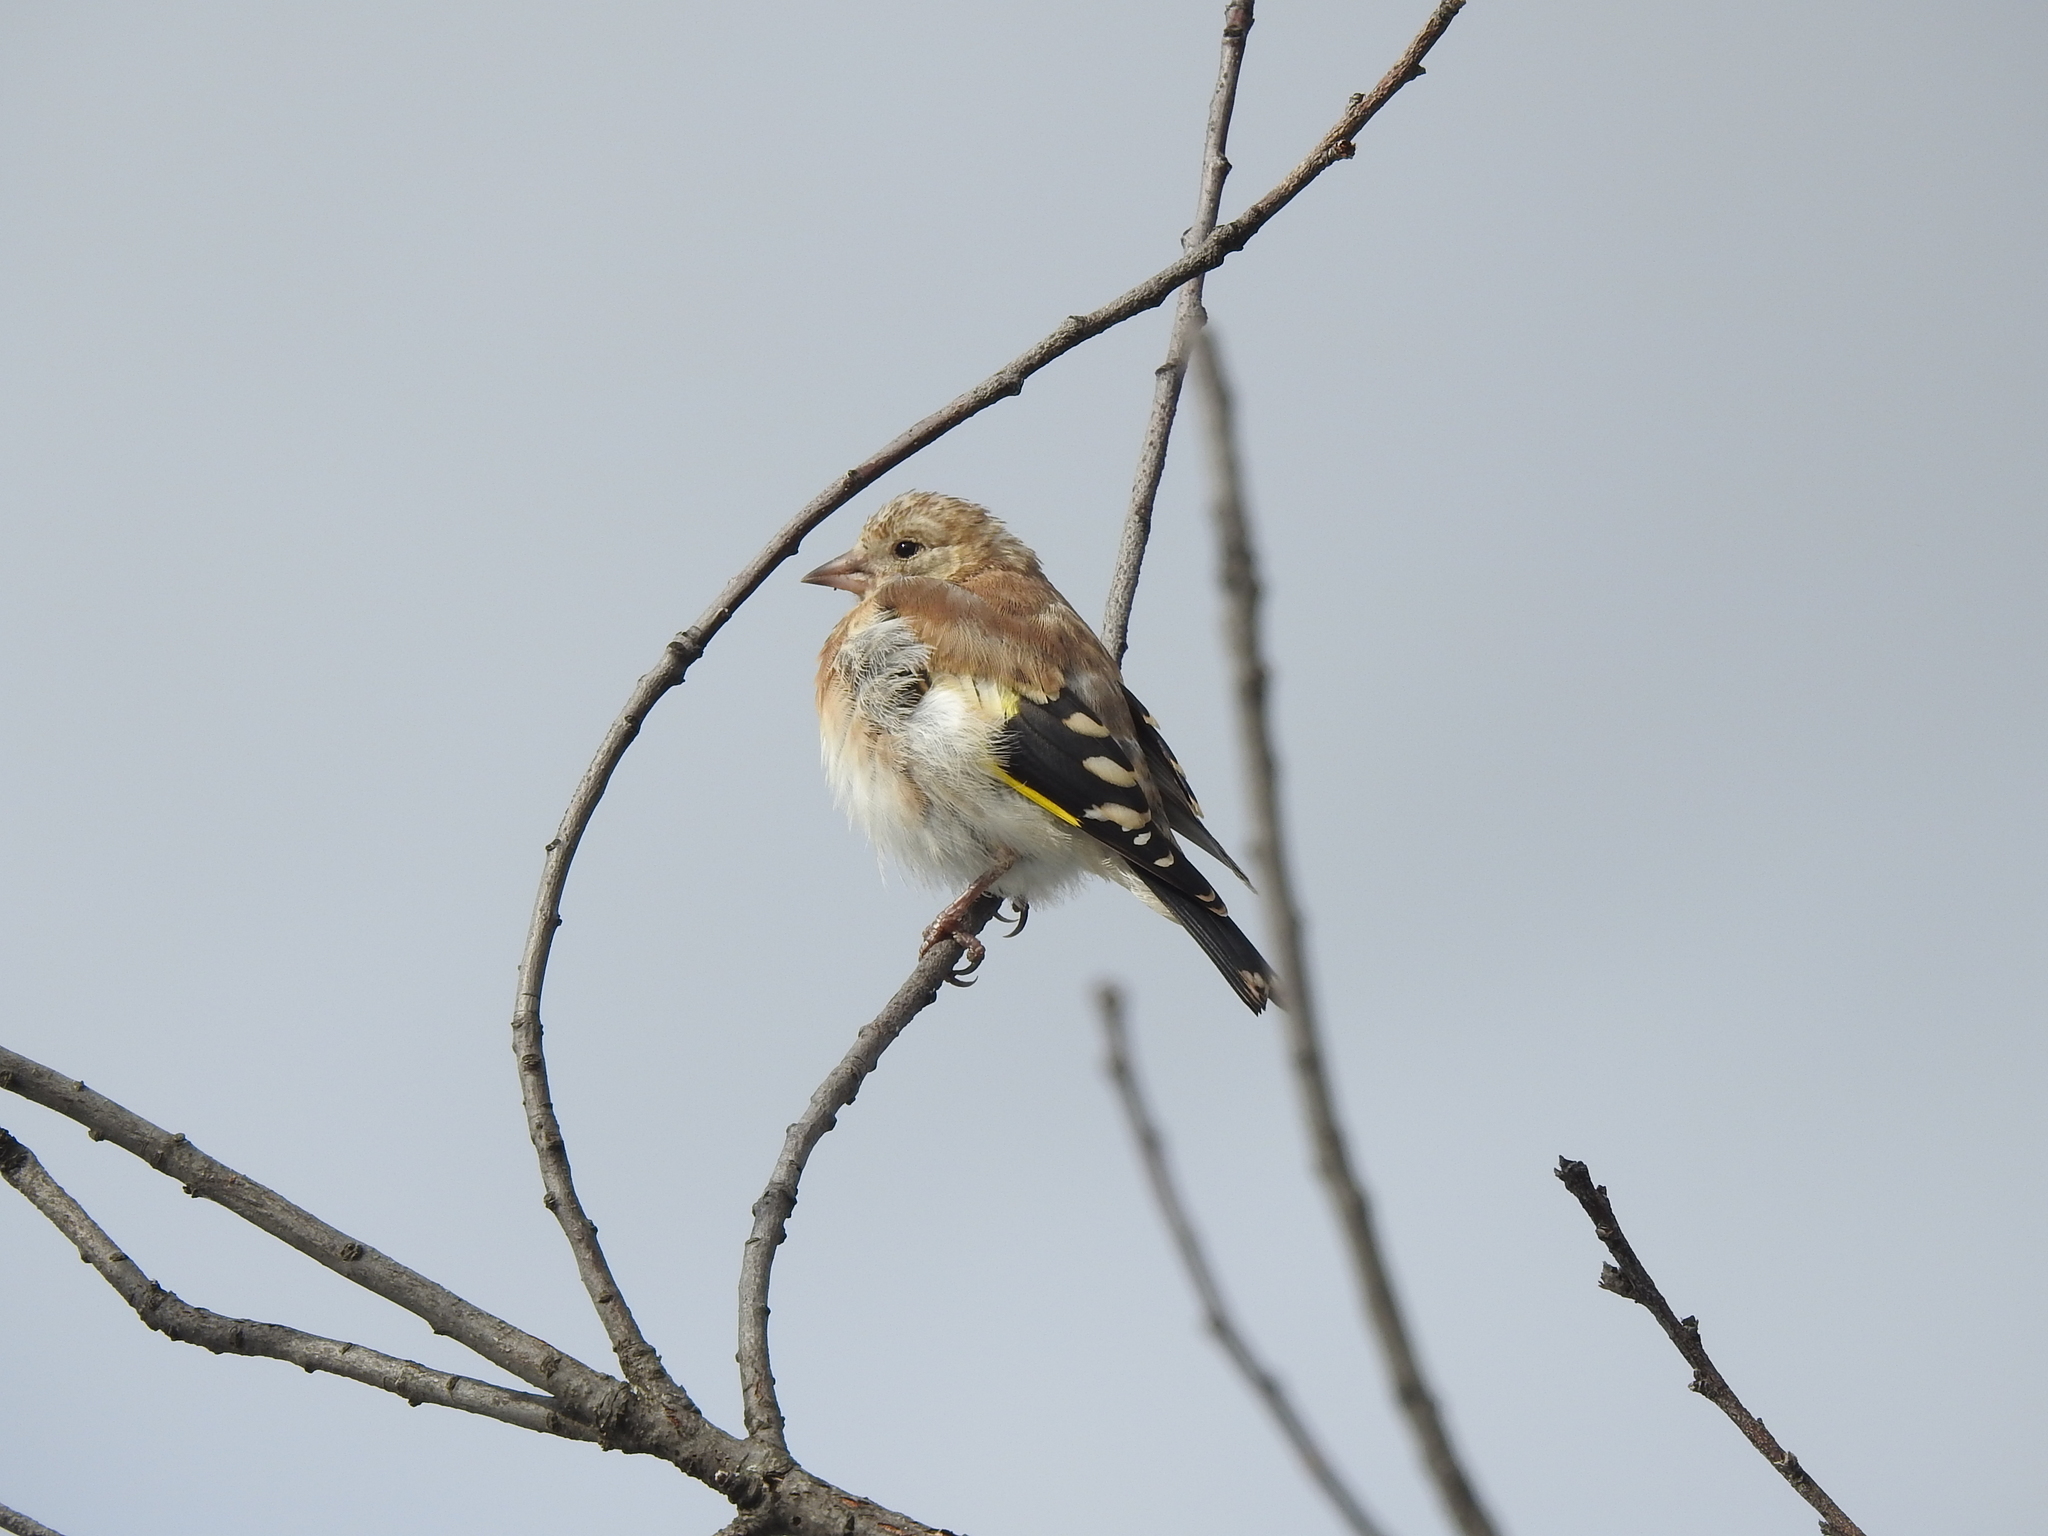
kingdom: Animalia
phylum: Chordata
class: Aves
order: Passeriformes
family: Fringillidae
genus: Carduelis
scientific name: Carduelis carduelis
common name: European goldfinch
